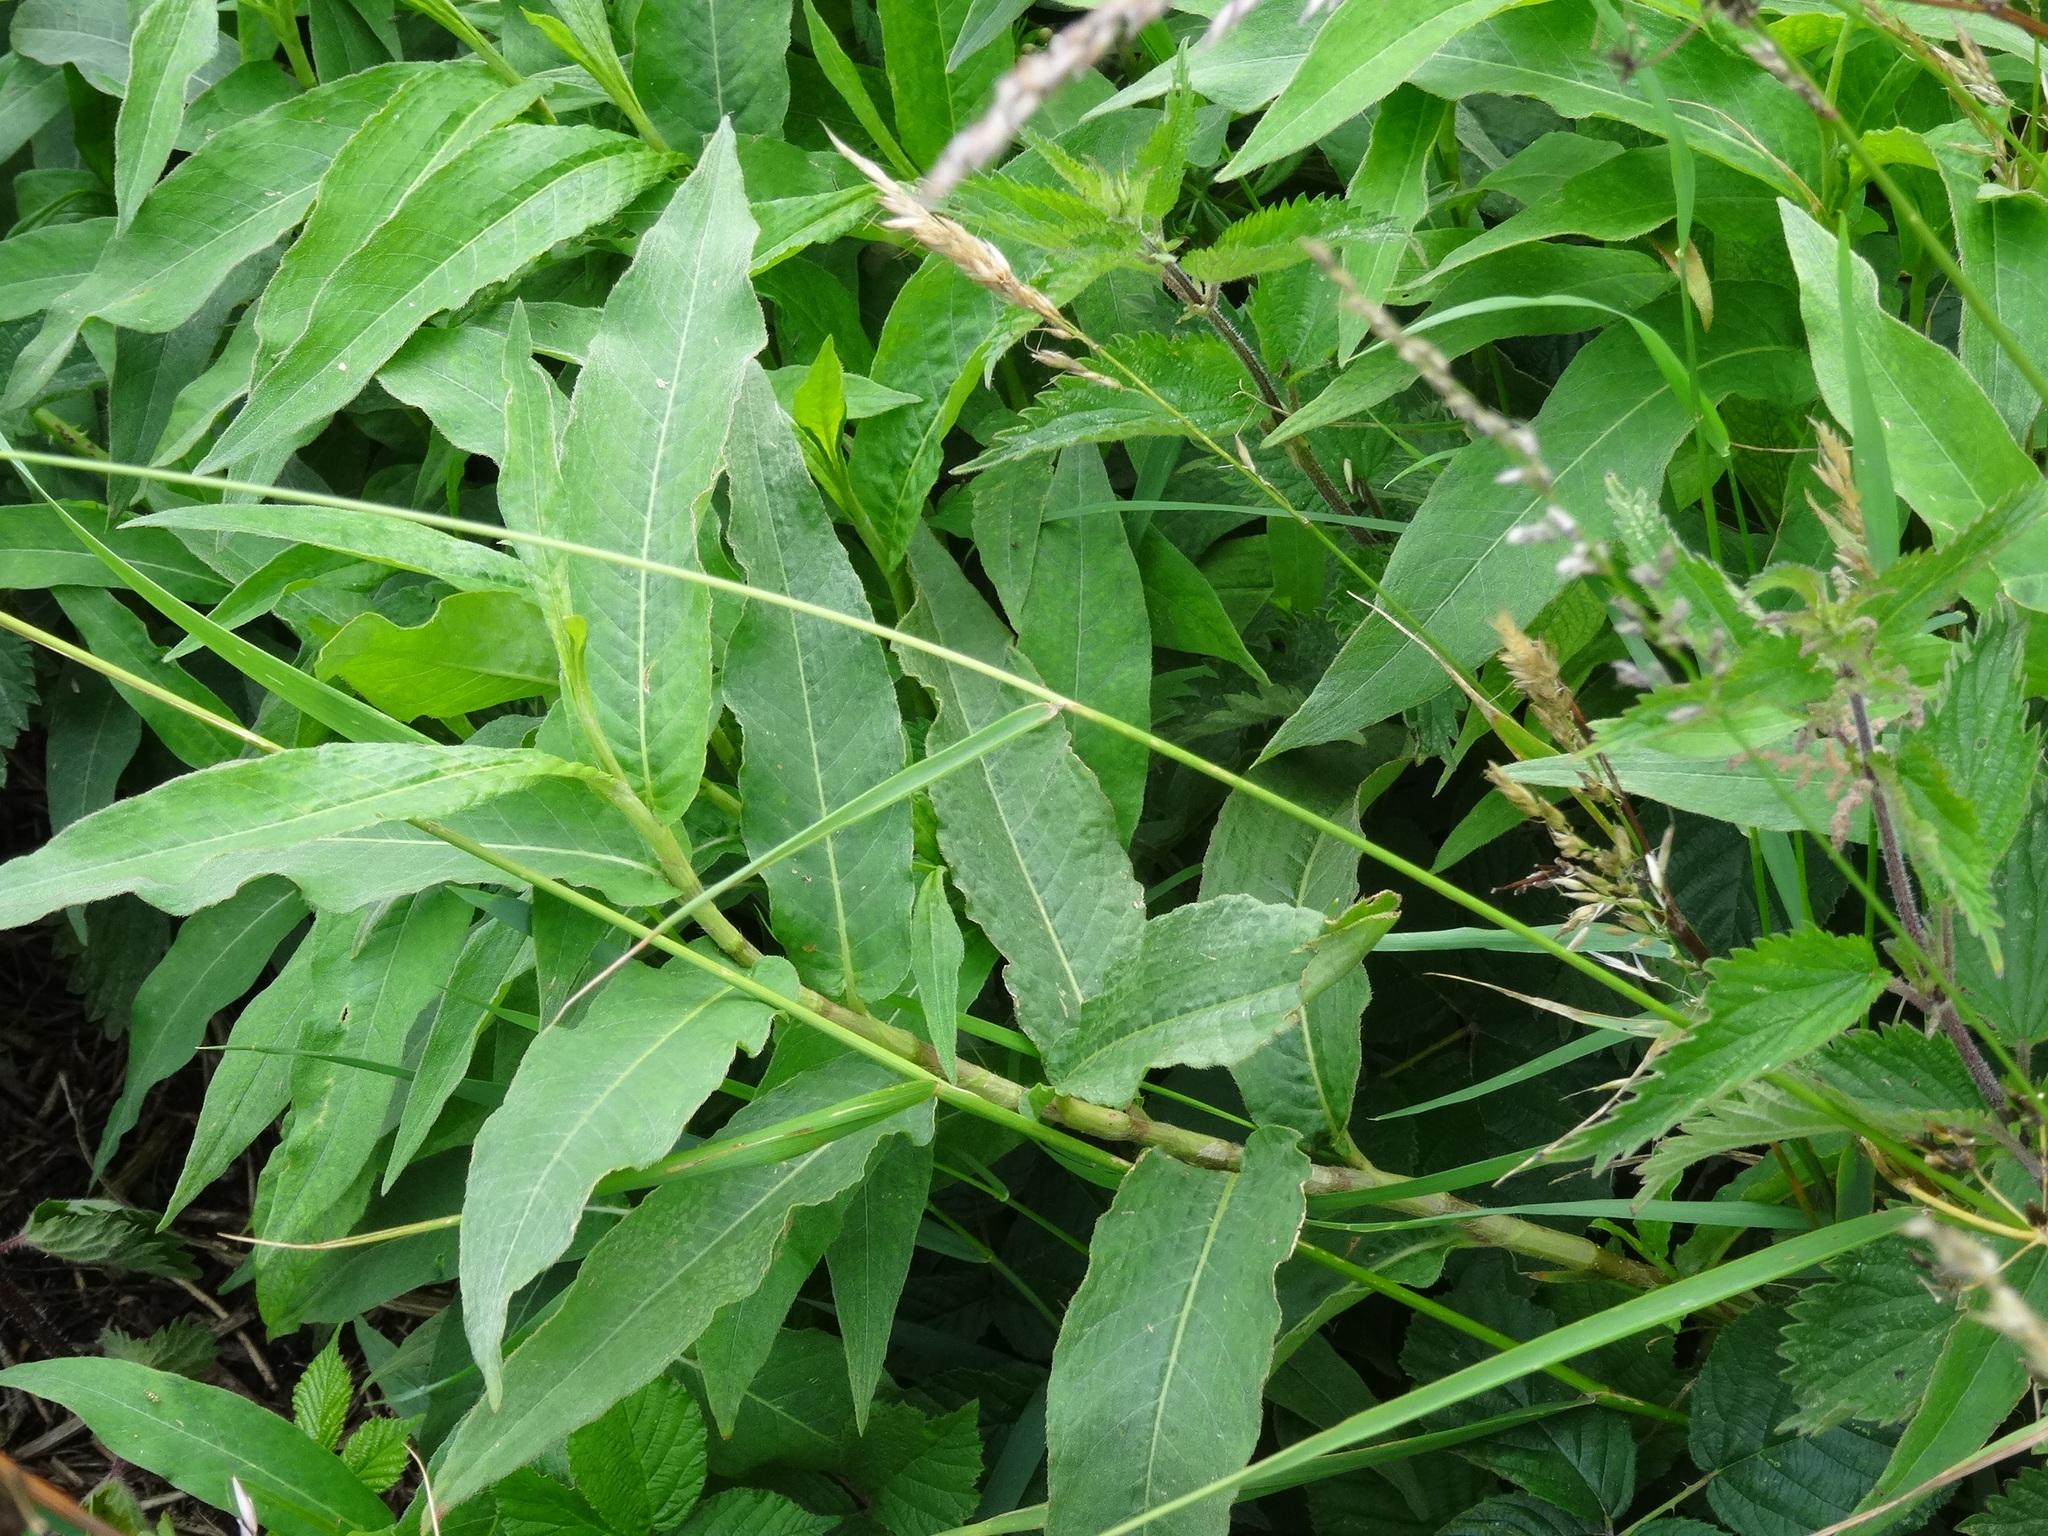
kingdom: Plantae
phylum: Tracheophyta
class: Magnoliopsida
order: Caryophyllales
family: Polygonaceae
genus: Persicaria
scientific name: Persicaria amphibia
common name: Amphibious bistort
